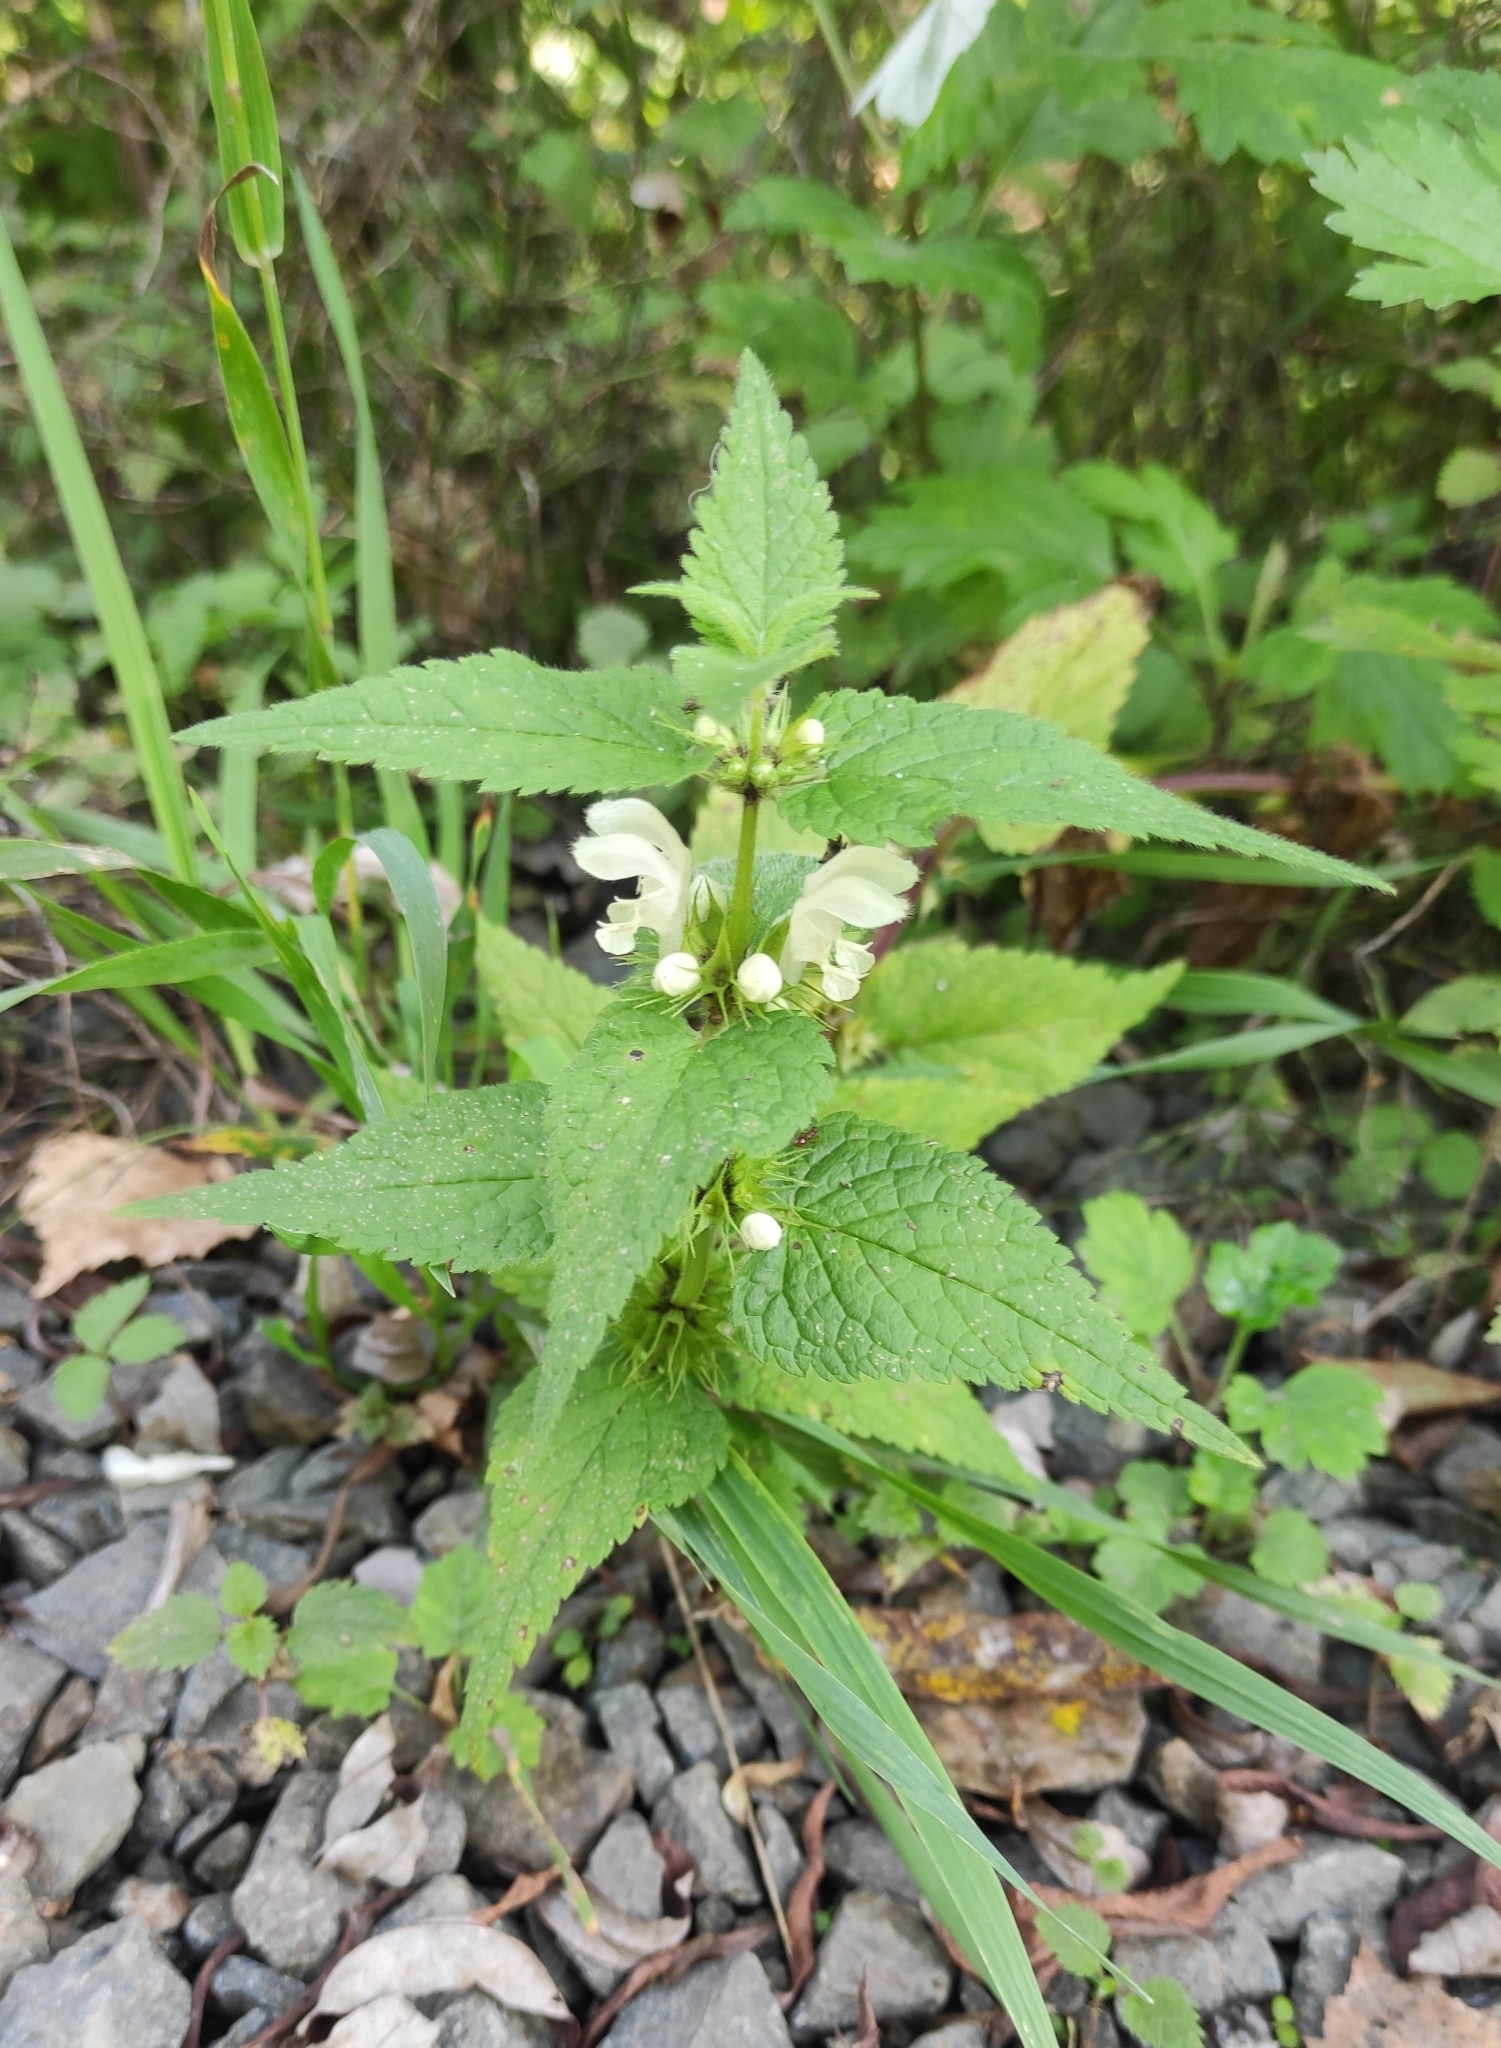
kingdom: Plantae
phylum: Tracheophyta
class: Magnoliopsida
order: Lamiales
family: Lamiaceae
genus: Lamium
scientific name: Lamium album
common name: White dead-nettle
